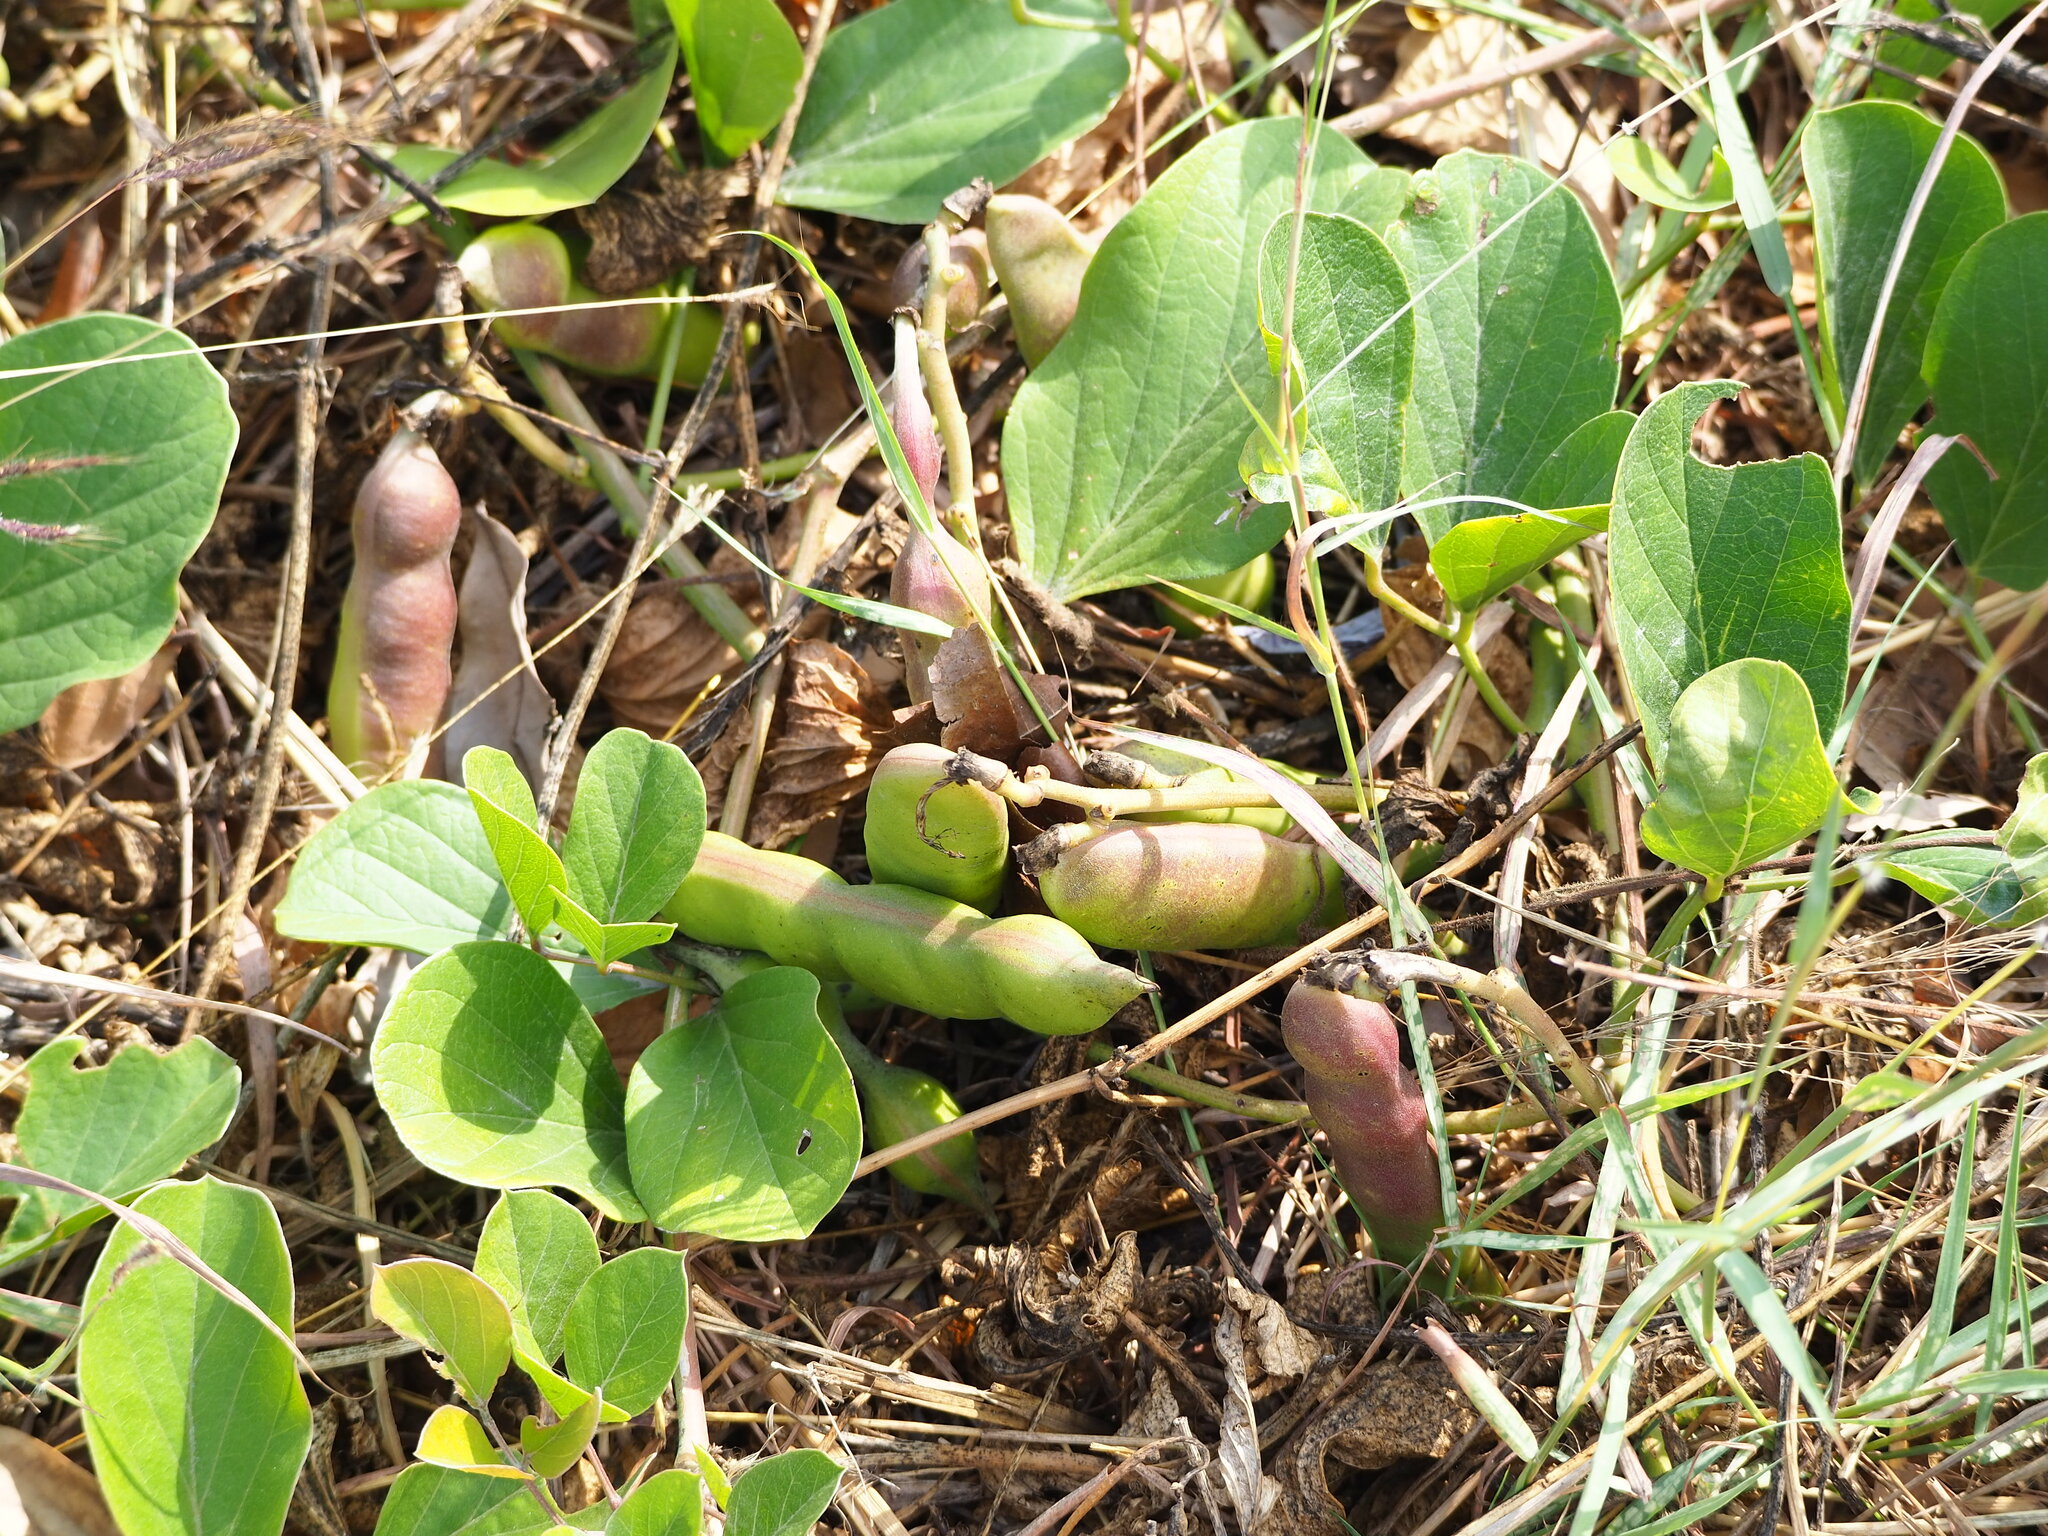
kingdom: Plantae
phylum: Tracheophyta
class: Magnoliopsida
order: Fabales
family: Fabaceae
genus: Canavalia
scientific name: Canavalia rosea
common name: Beach-bean
